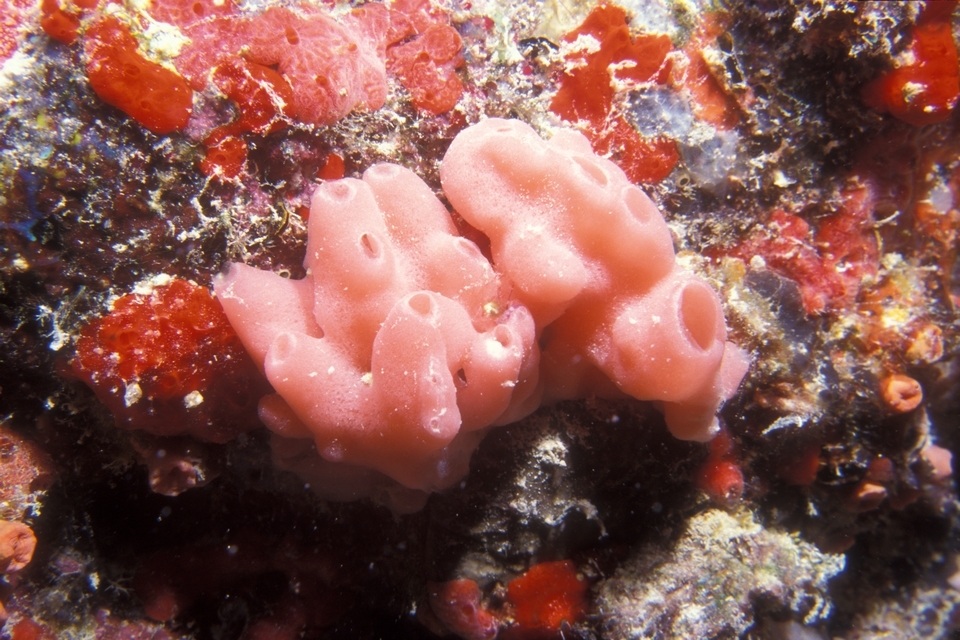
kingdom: Animalia
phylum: Porifera
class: Demospongiae
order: Haplosclerida
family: Callyspongiidae
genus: Callyspongia
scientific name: Callyspongia fallax
